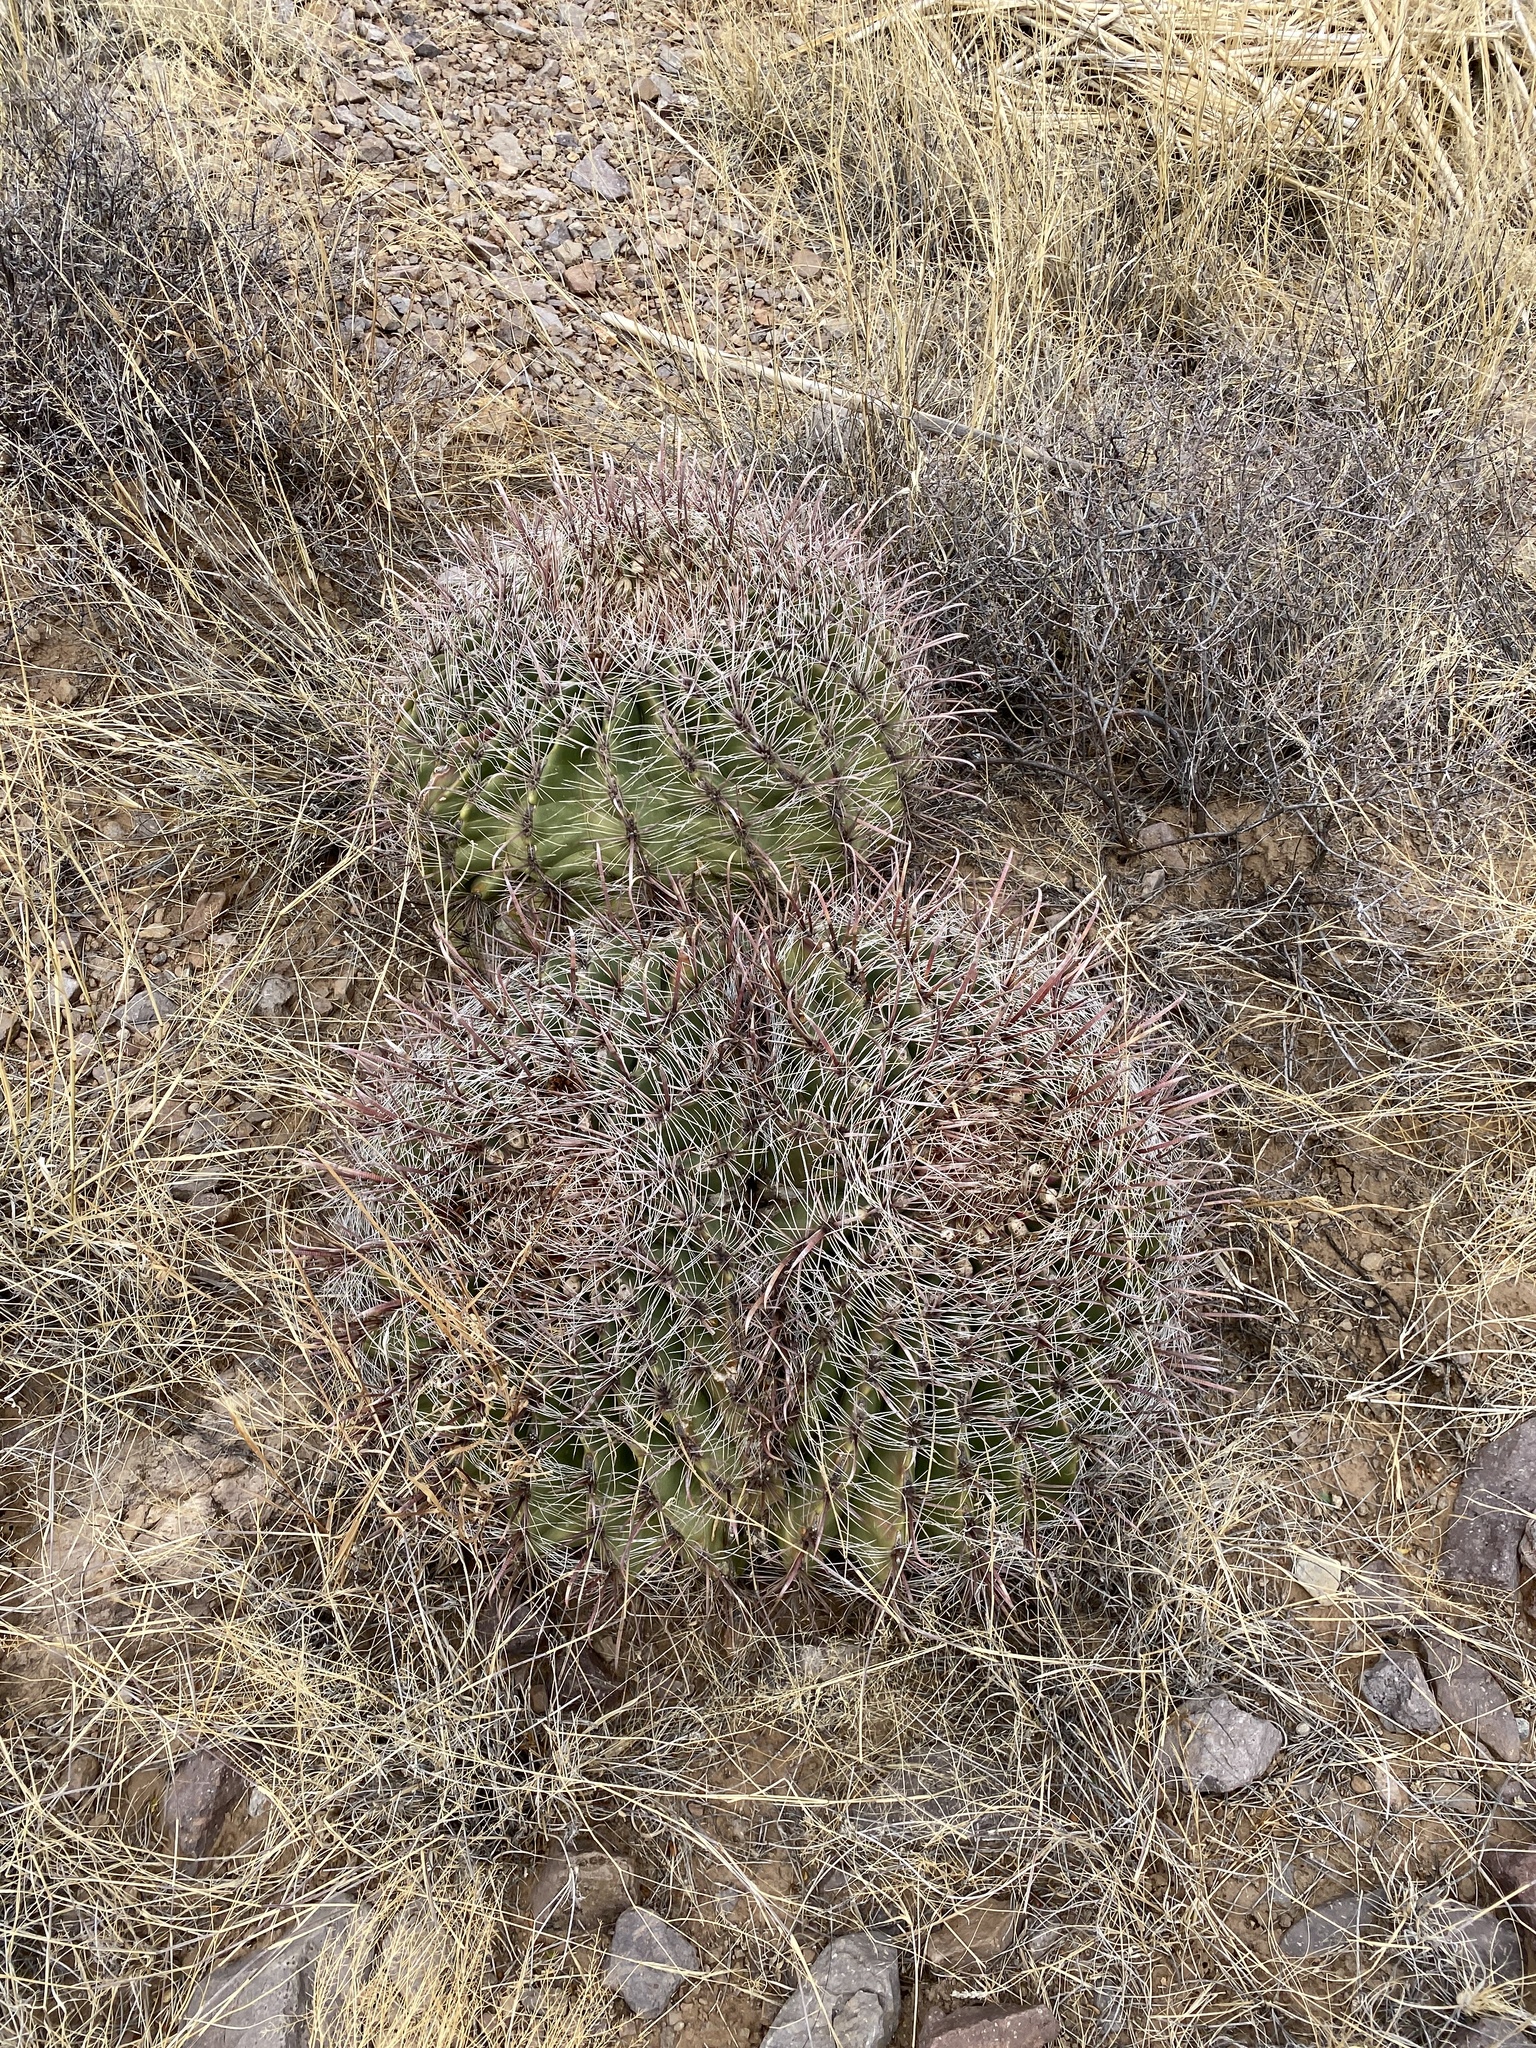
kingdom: Plantae
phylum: Tracheophyta
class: Magnoliopsida
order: Caryophyllales
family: Cactaceae
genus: Ferocactus
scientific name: Ferocactus wislizeni
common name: Candy barrel cactus
